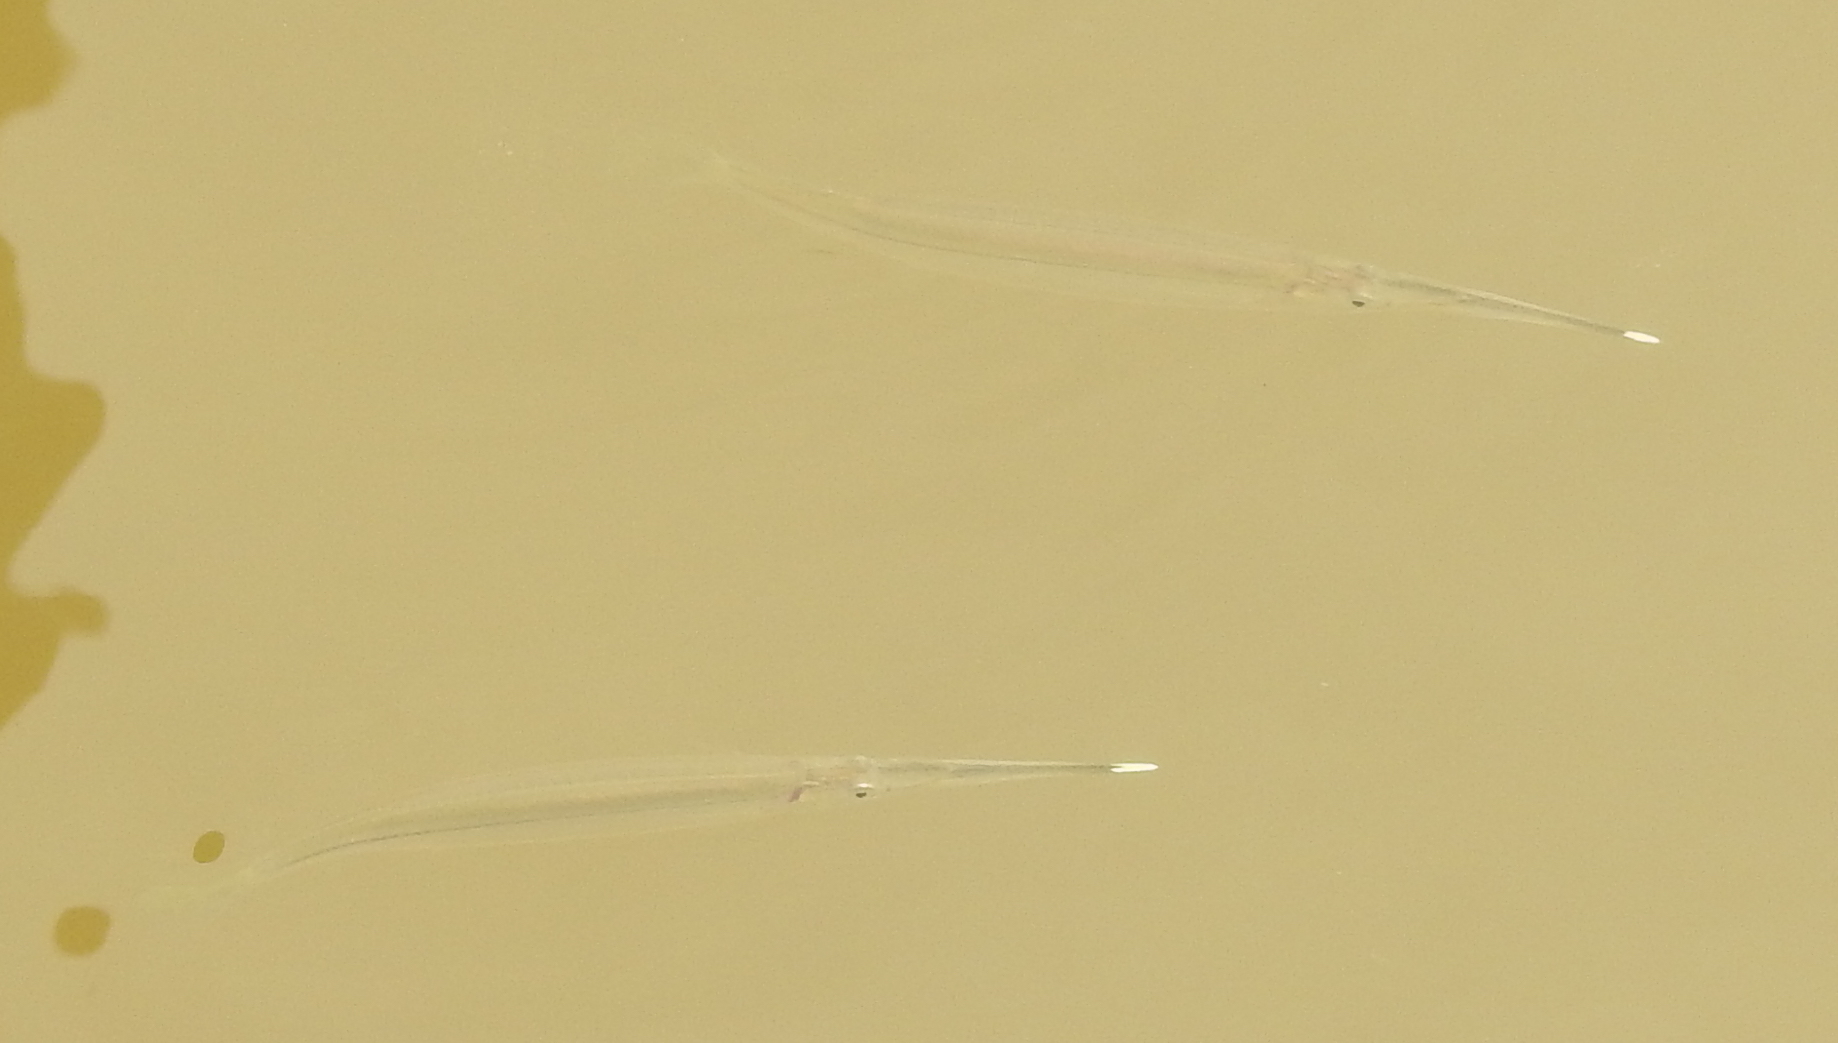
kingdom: Animalia
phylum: Chordata
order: Beloniformes
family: Zenarchopteridae
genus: Zenarchopterus
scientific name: Zenarchopterus dispar
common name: Estuarine halfbeak
